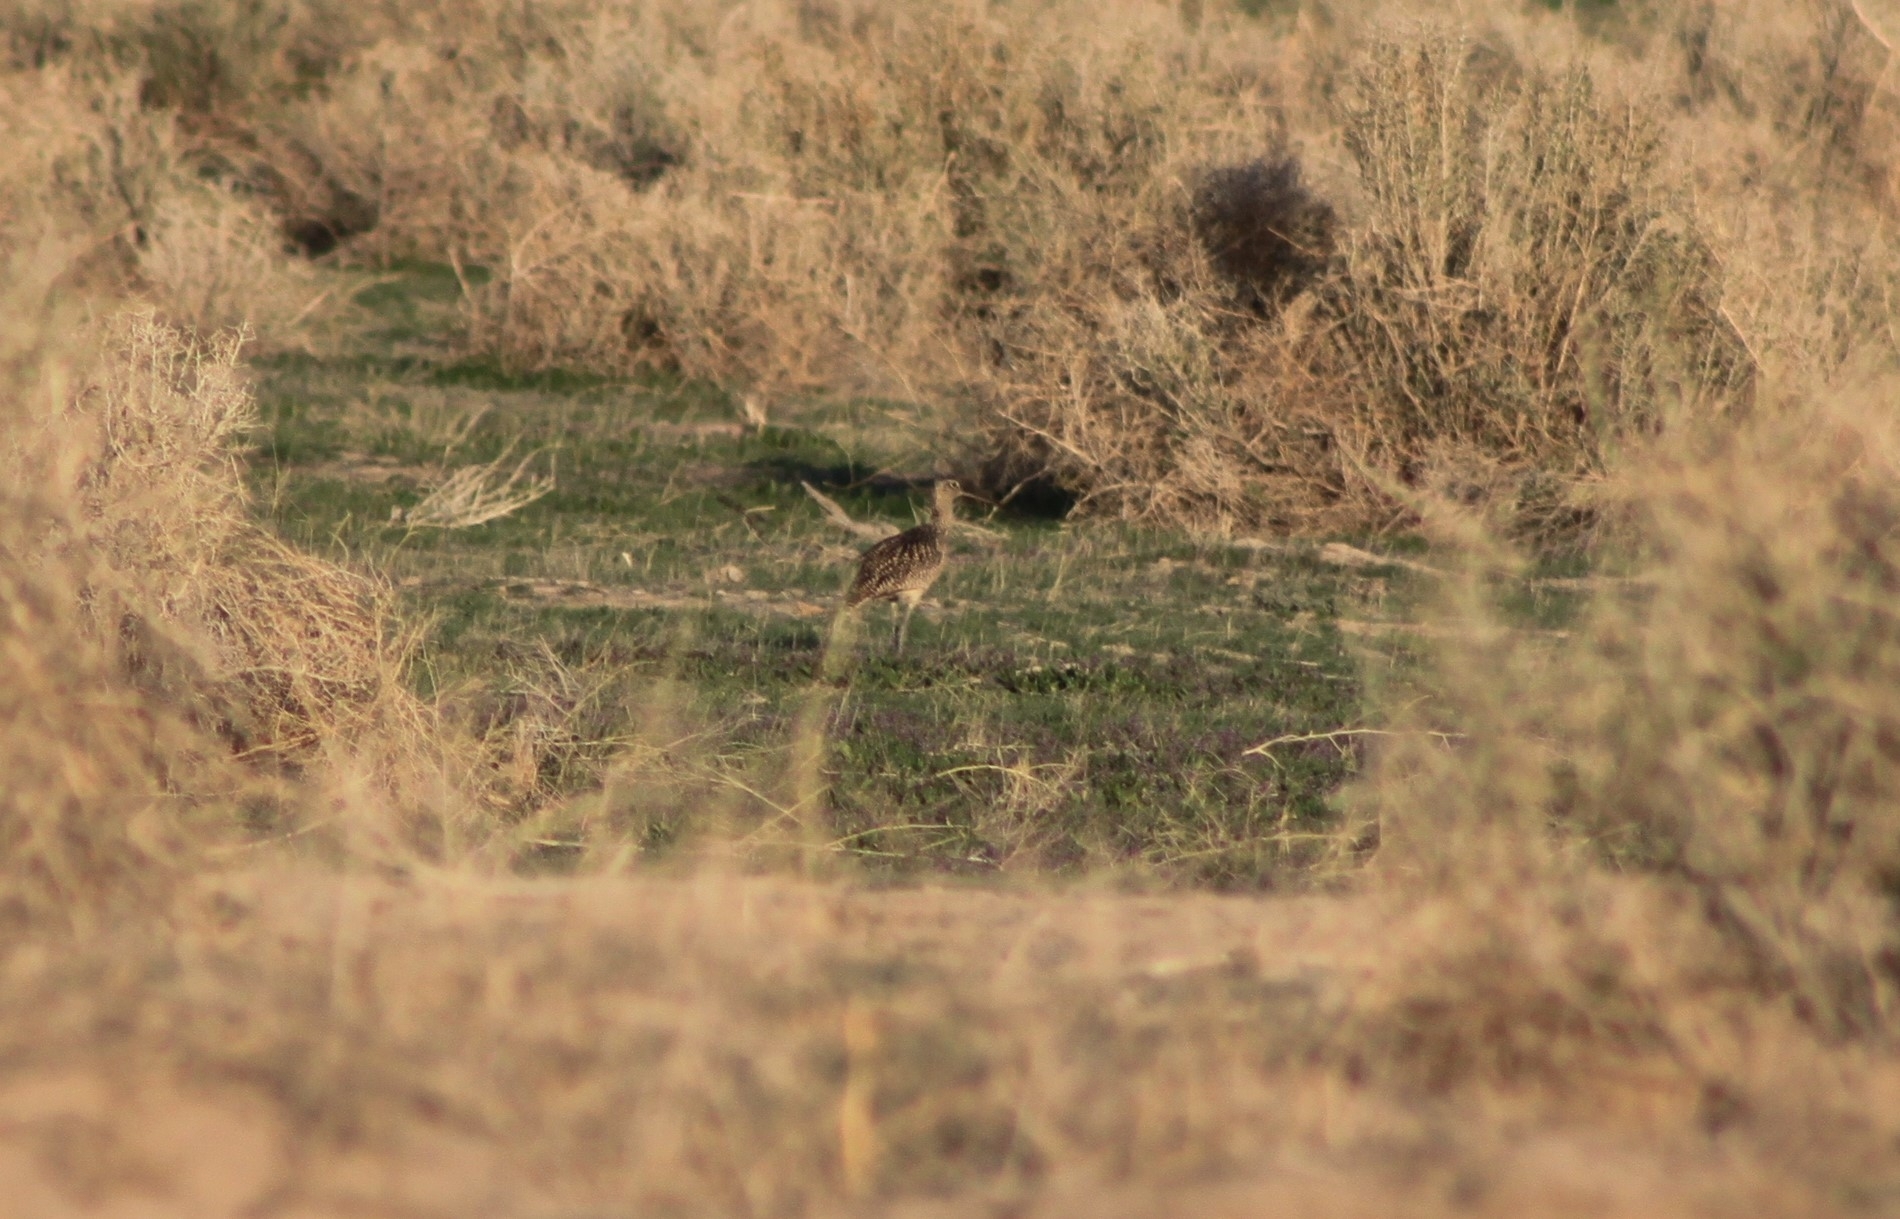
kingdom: Animalia
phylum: Chordata
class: Aves
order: Charadriiformes
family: Scolopacidae
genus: Numenius
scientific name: Numenius americanus
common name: Long-billed curlew
